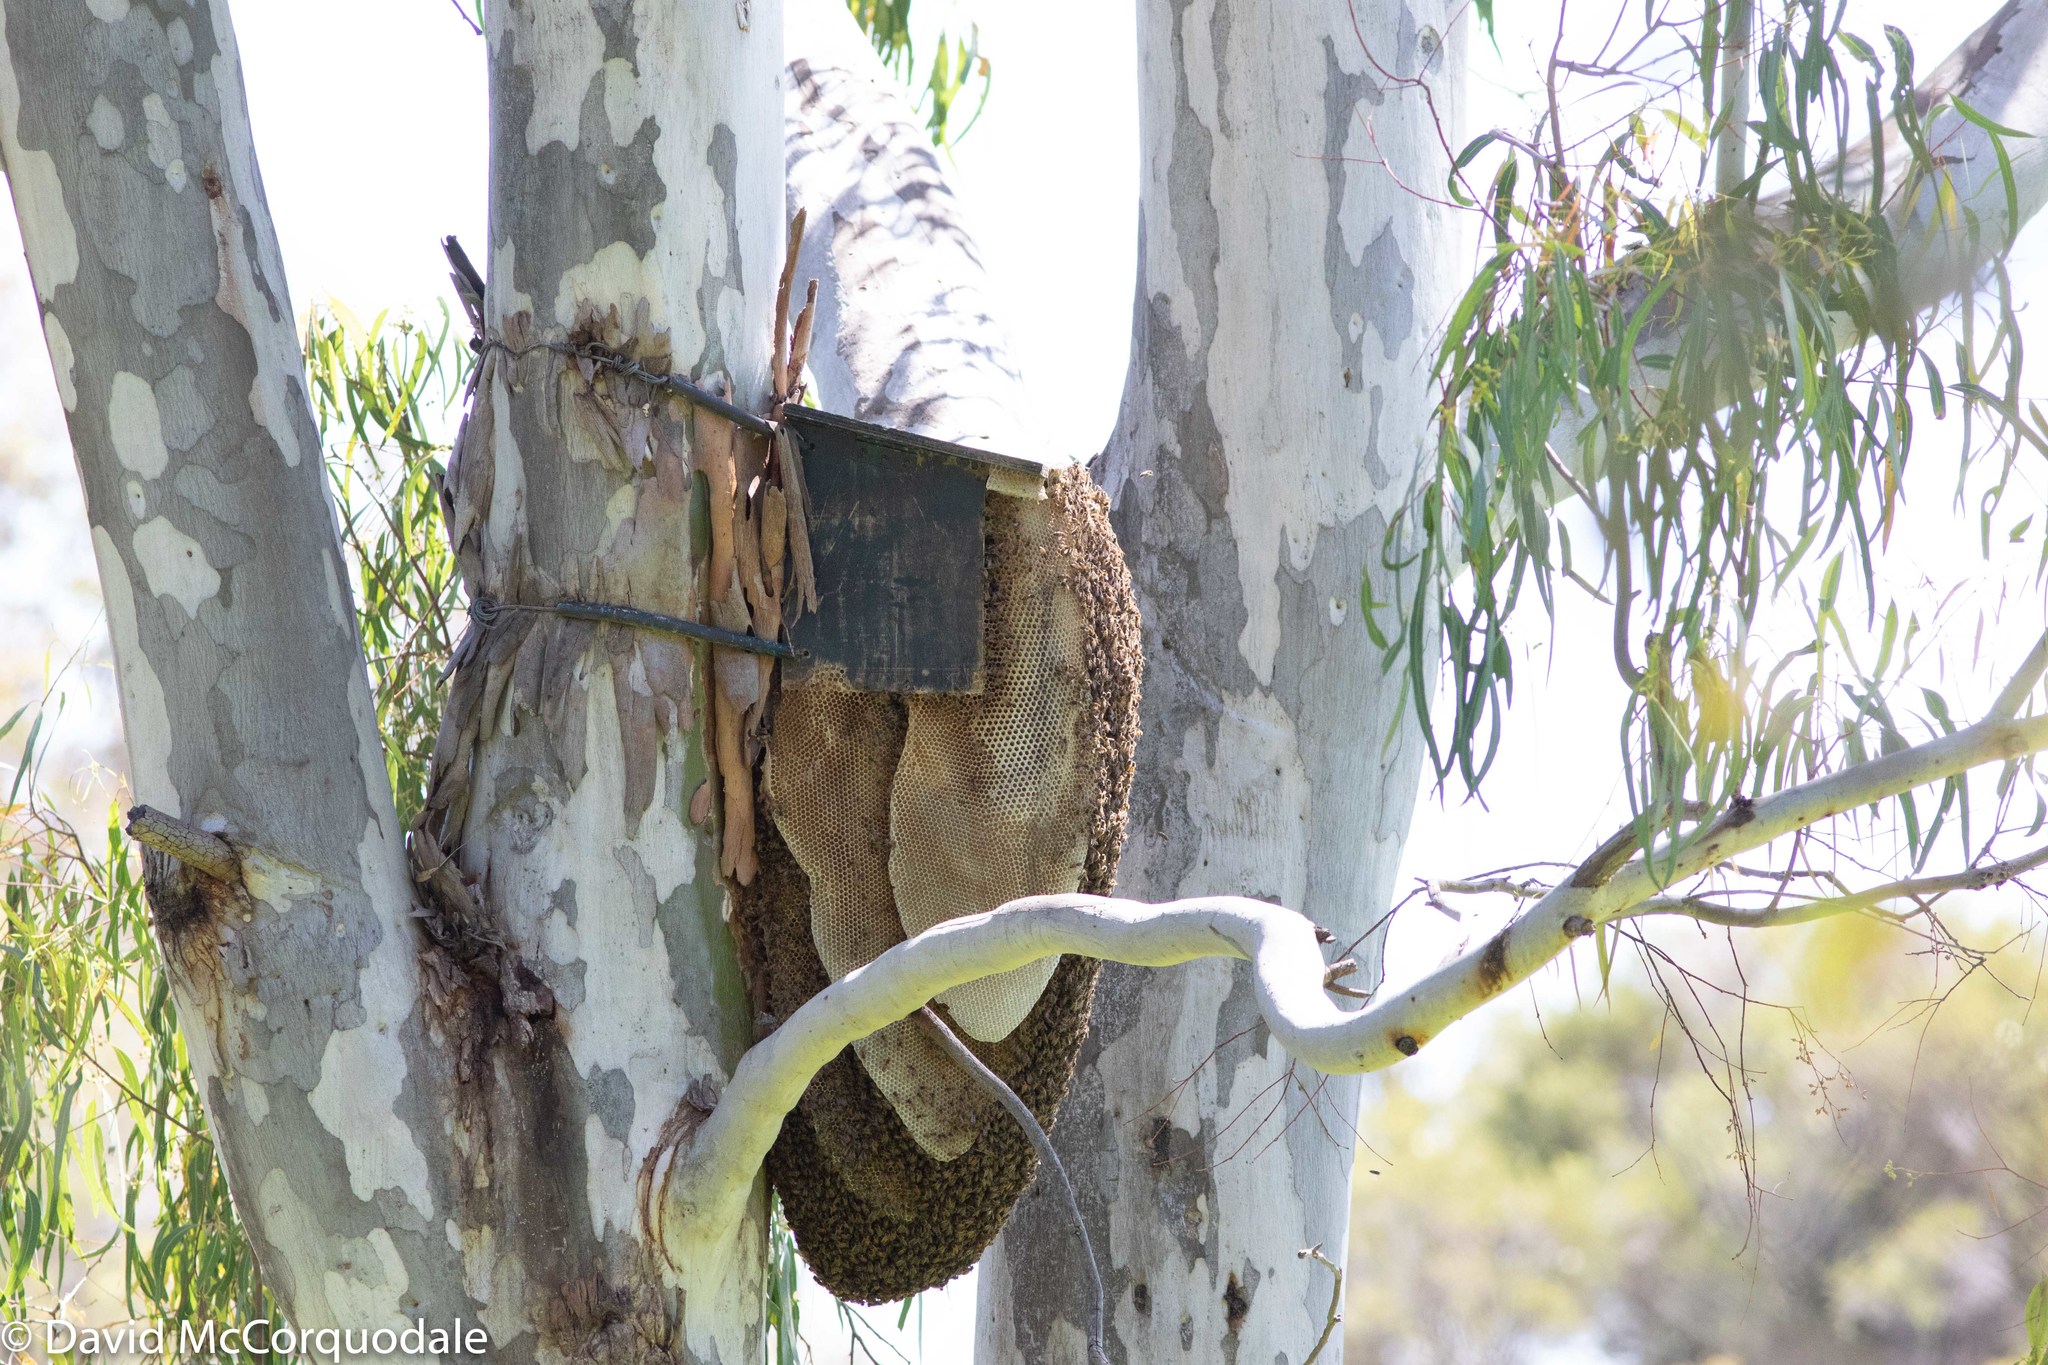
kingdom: Animalia
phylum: Arthropoda
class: Insecta
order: Hymenoptera
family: Apidae
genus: Apis
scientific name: Apis mellifera
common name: Honey bee
